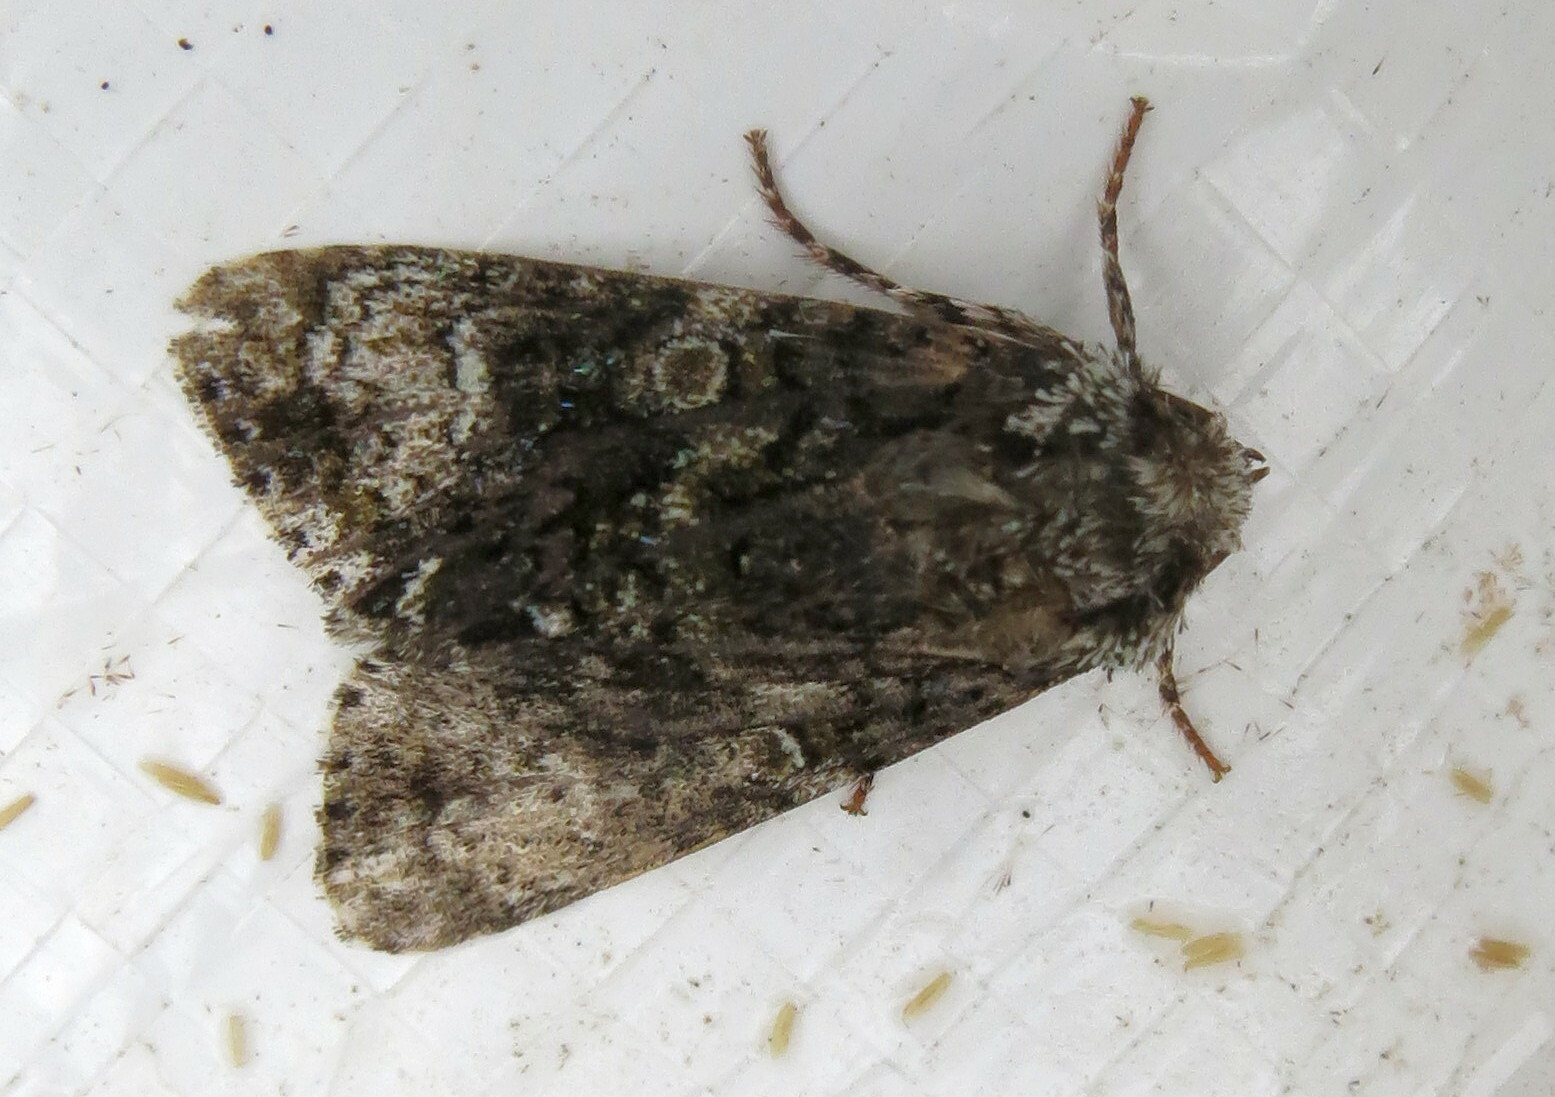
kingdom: Animalia
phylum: Arthropoda
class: Insecta
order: Lepidoptera
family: Noctuidae
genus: Craniophora
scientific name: Craniophora ligustri
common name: Coronet
